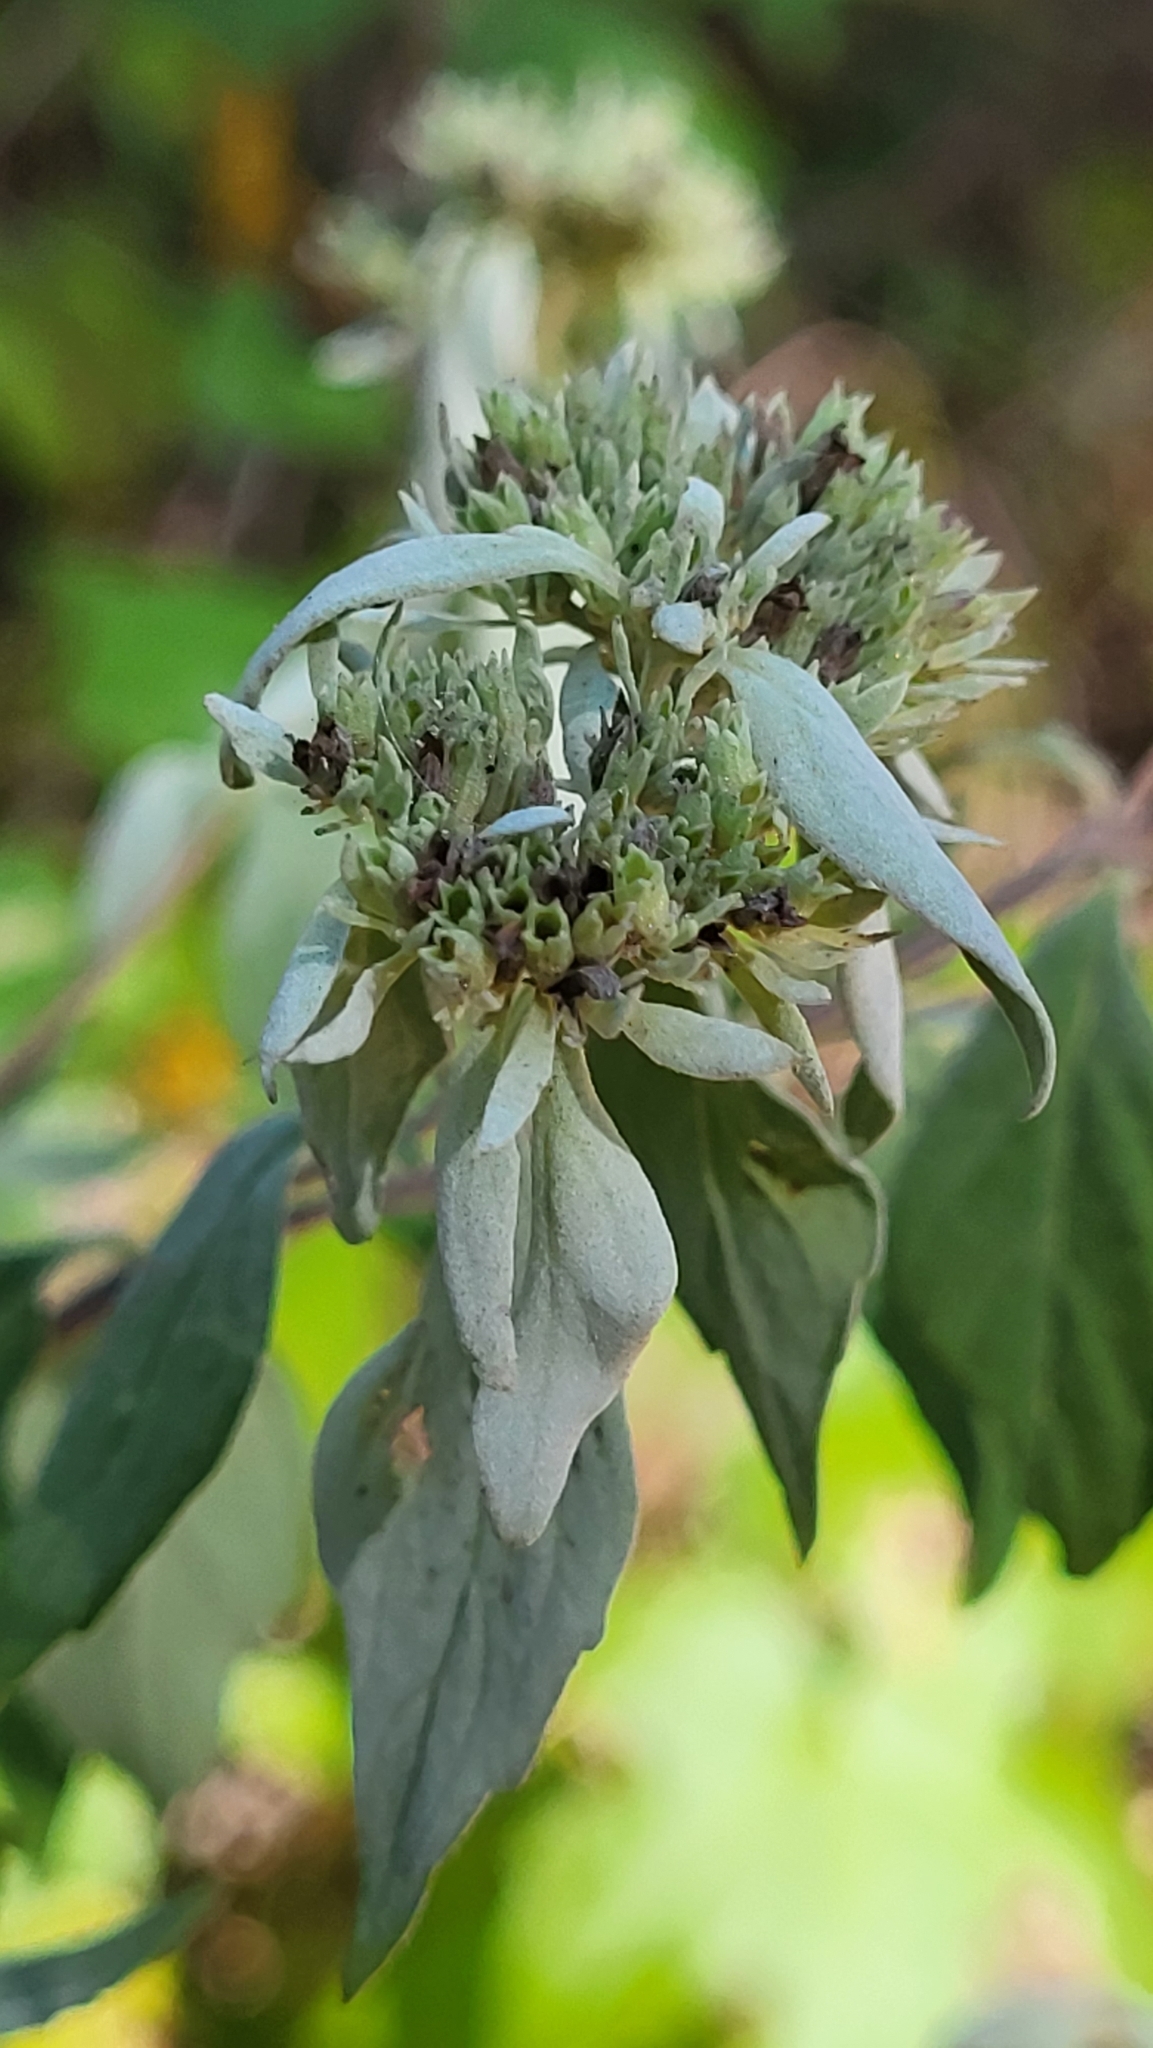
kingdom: Plantae
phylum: Tracheophyta
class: Magnoliopsida
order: Lamiales
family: Lamiaceae
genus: Pycnanthemum
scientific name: Pycnanthemum albescens
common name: White-leaf mountain-mint
